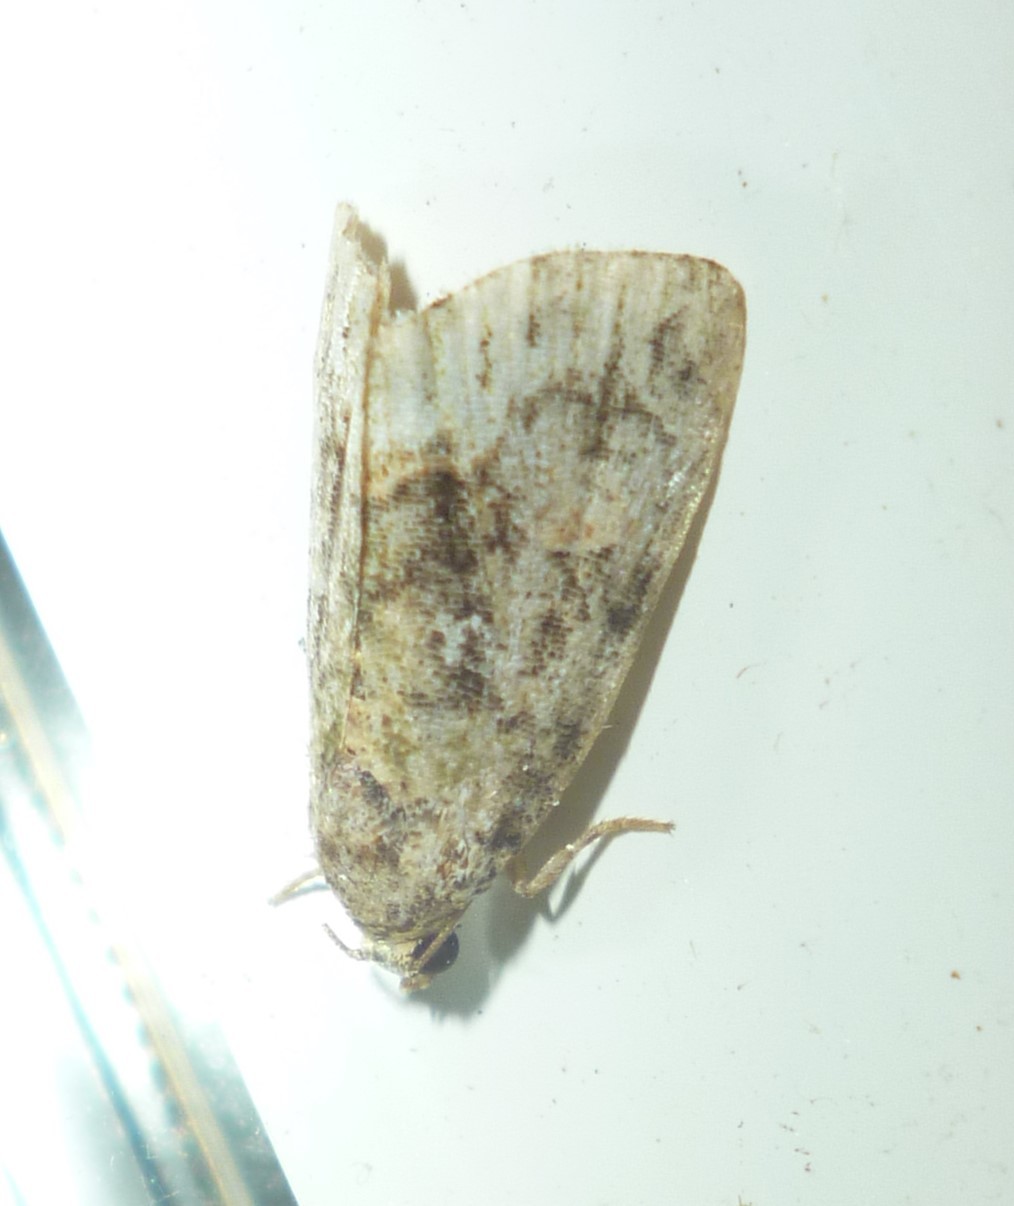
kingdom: Animalia
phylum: Arthropoda
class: Insecta
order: Lepidoptera
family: Noctuidae
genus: Lithacodia
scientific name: Lithacodia musta
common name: Small mossy glyph
